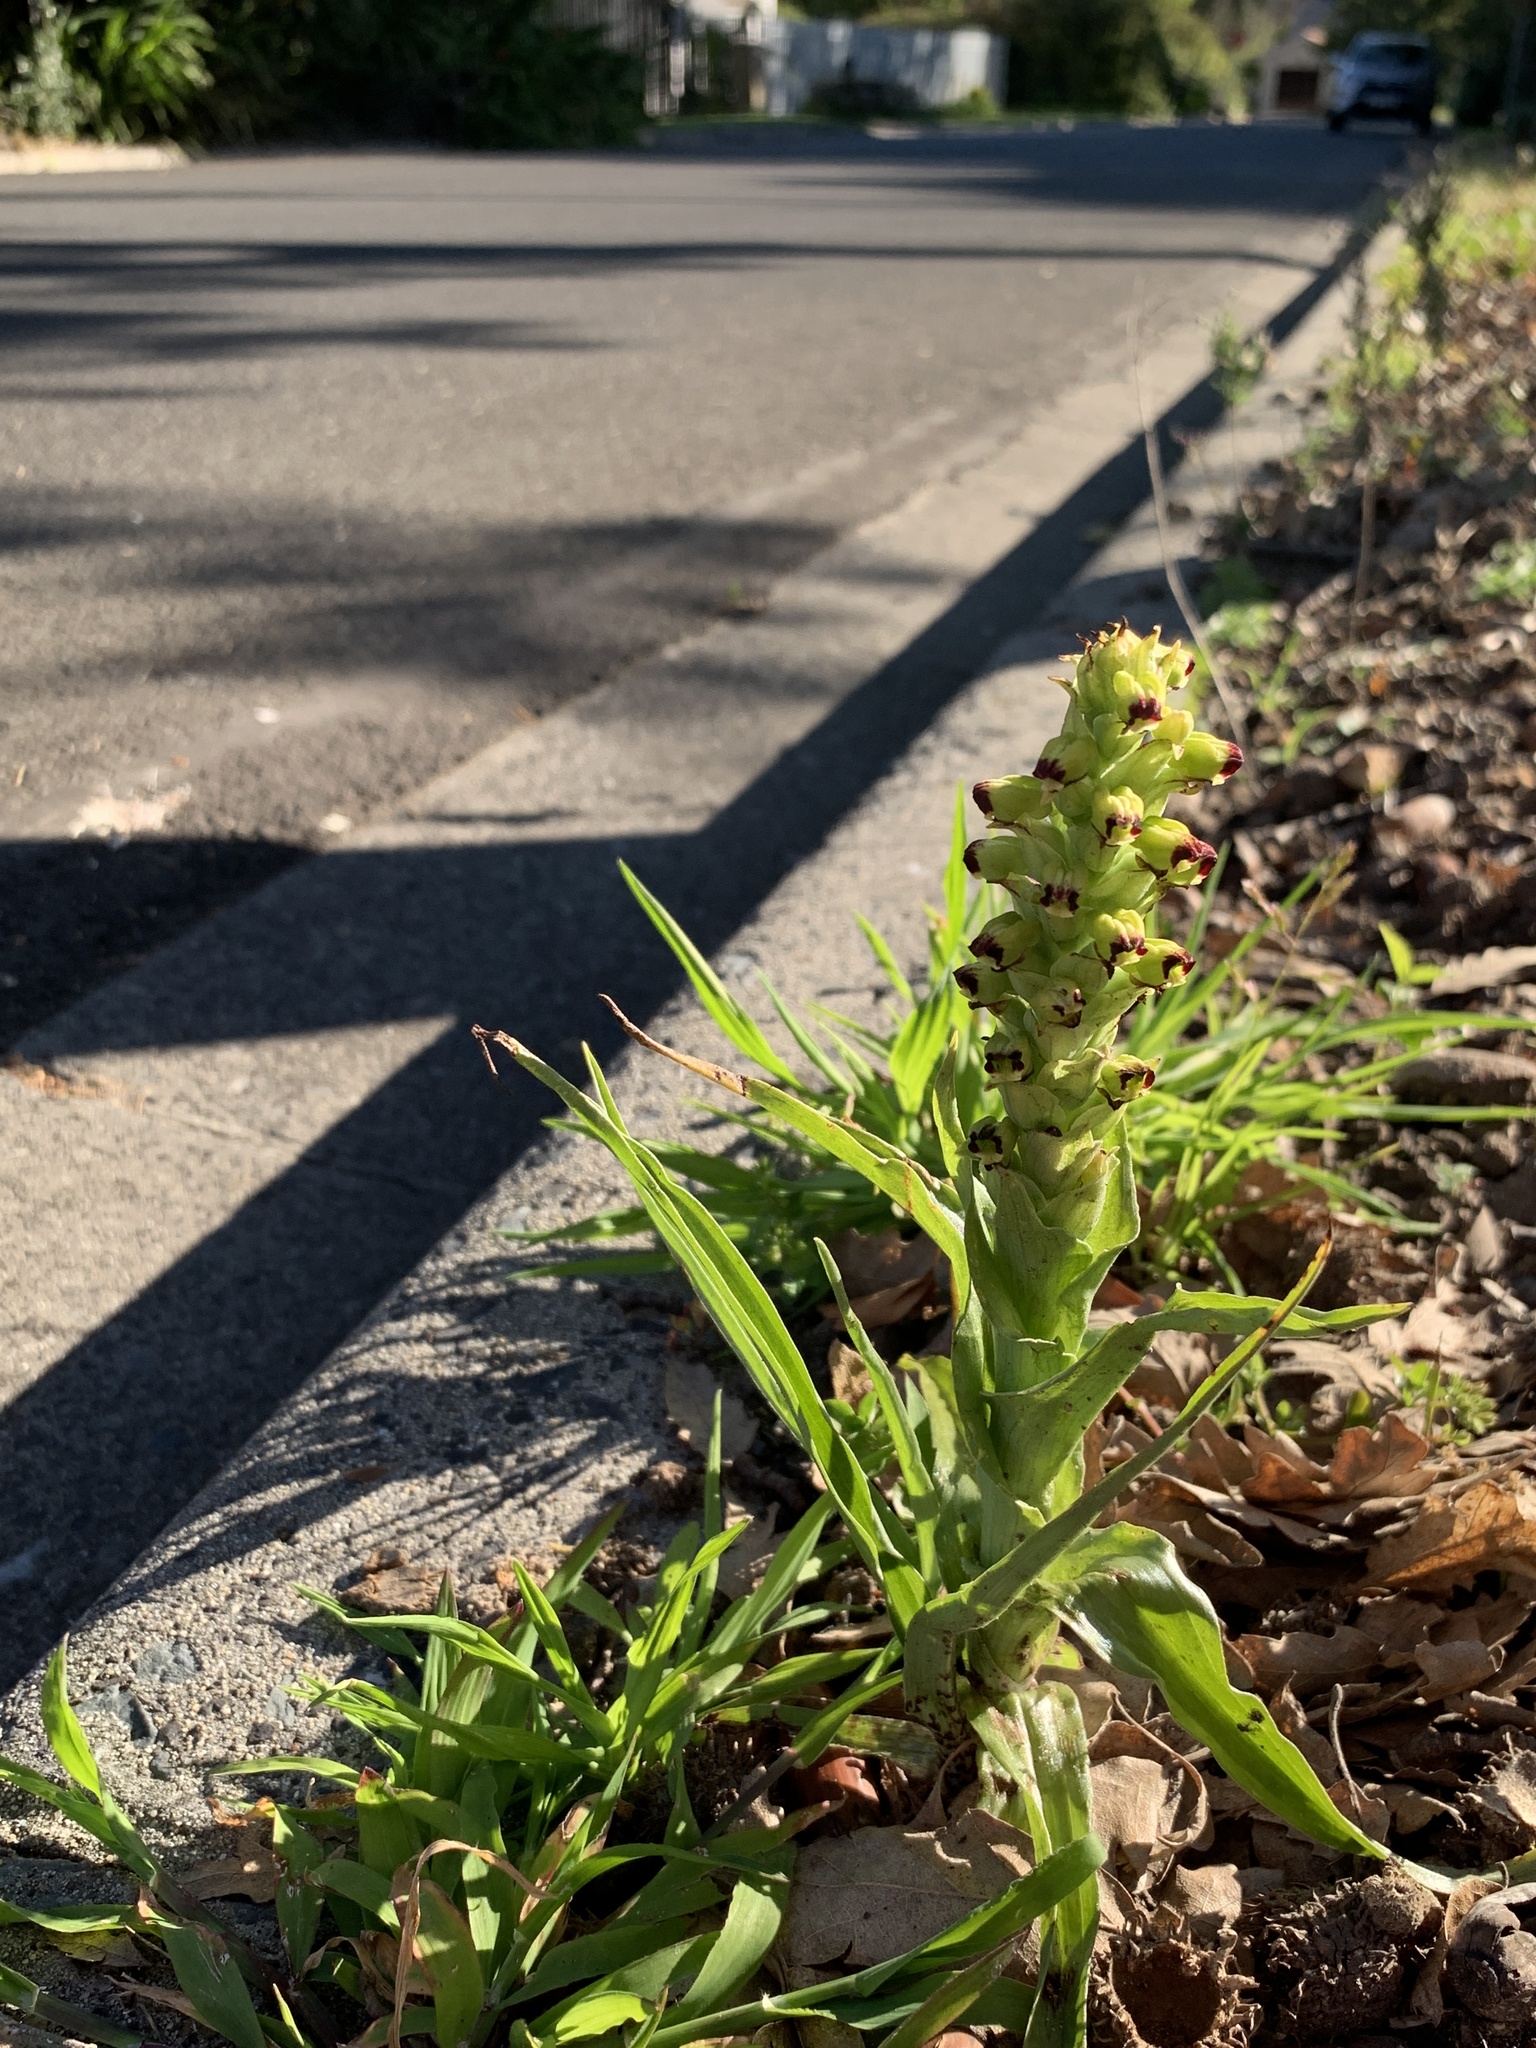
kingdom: Plantae
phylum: Tracheophyta
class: Liliopsida
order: Asparagales
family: Orchidaceae
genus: Corycium
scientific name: Corycium orobanchoides
